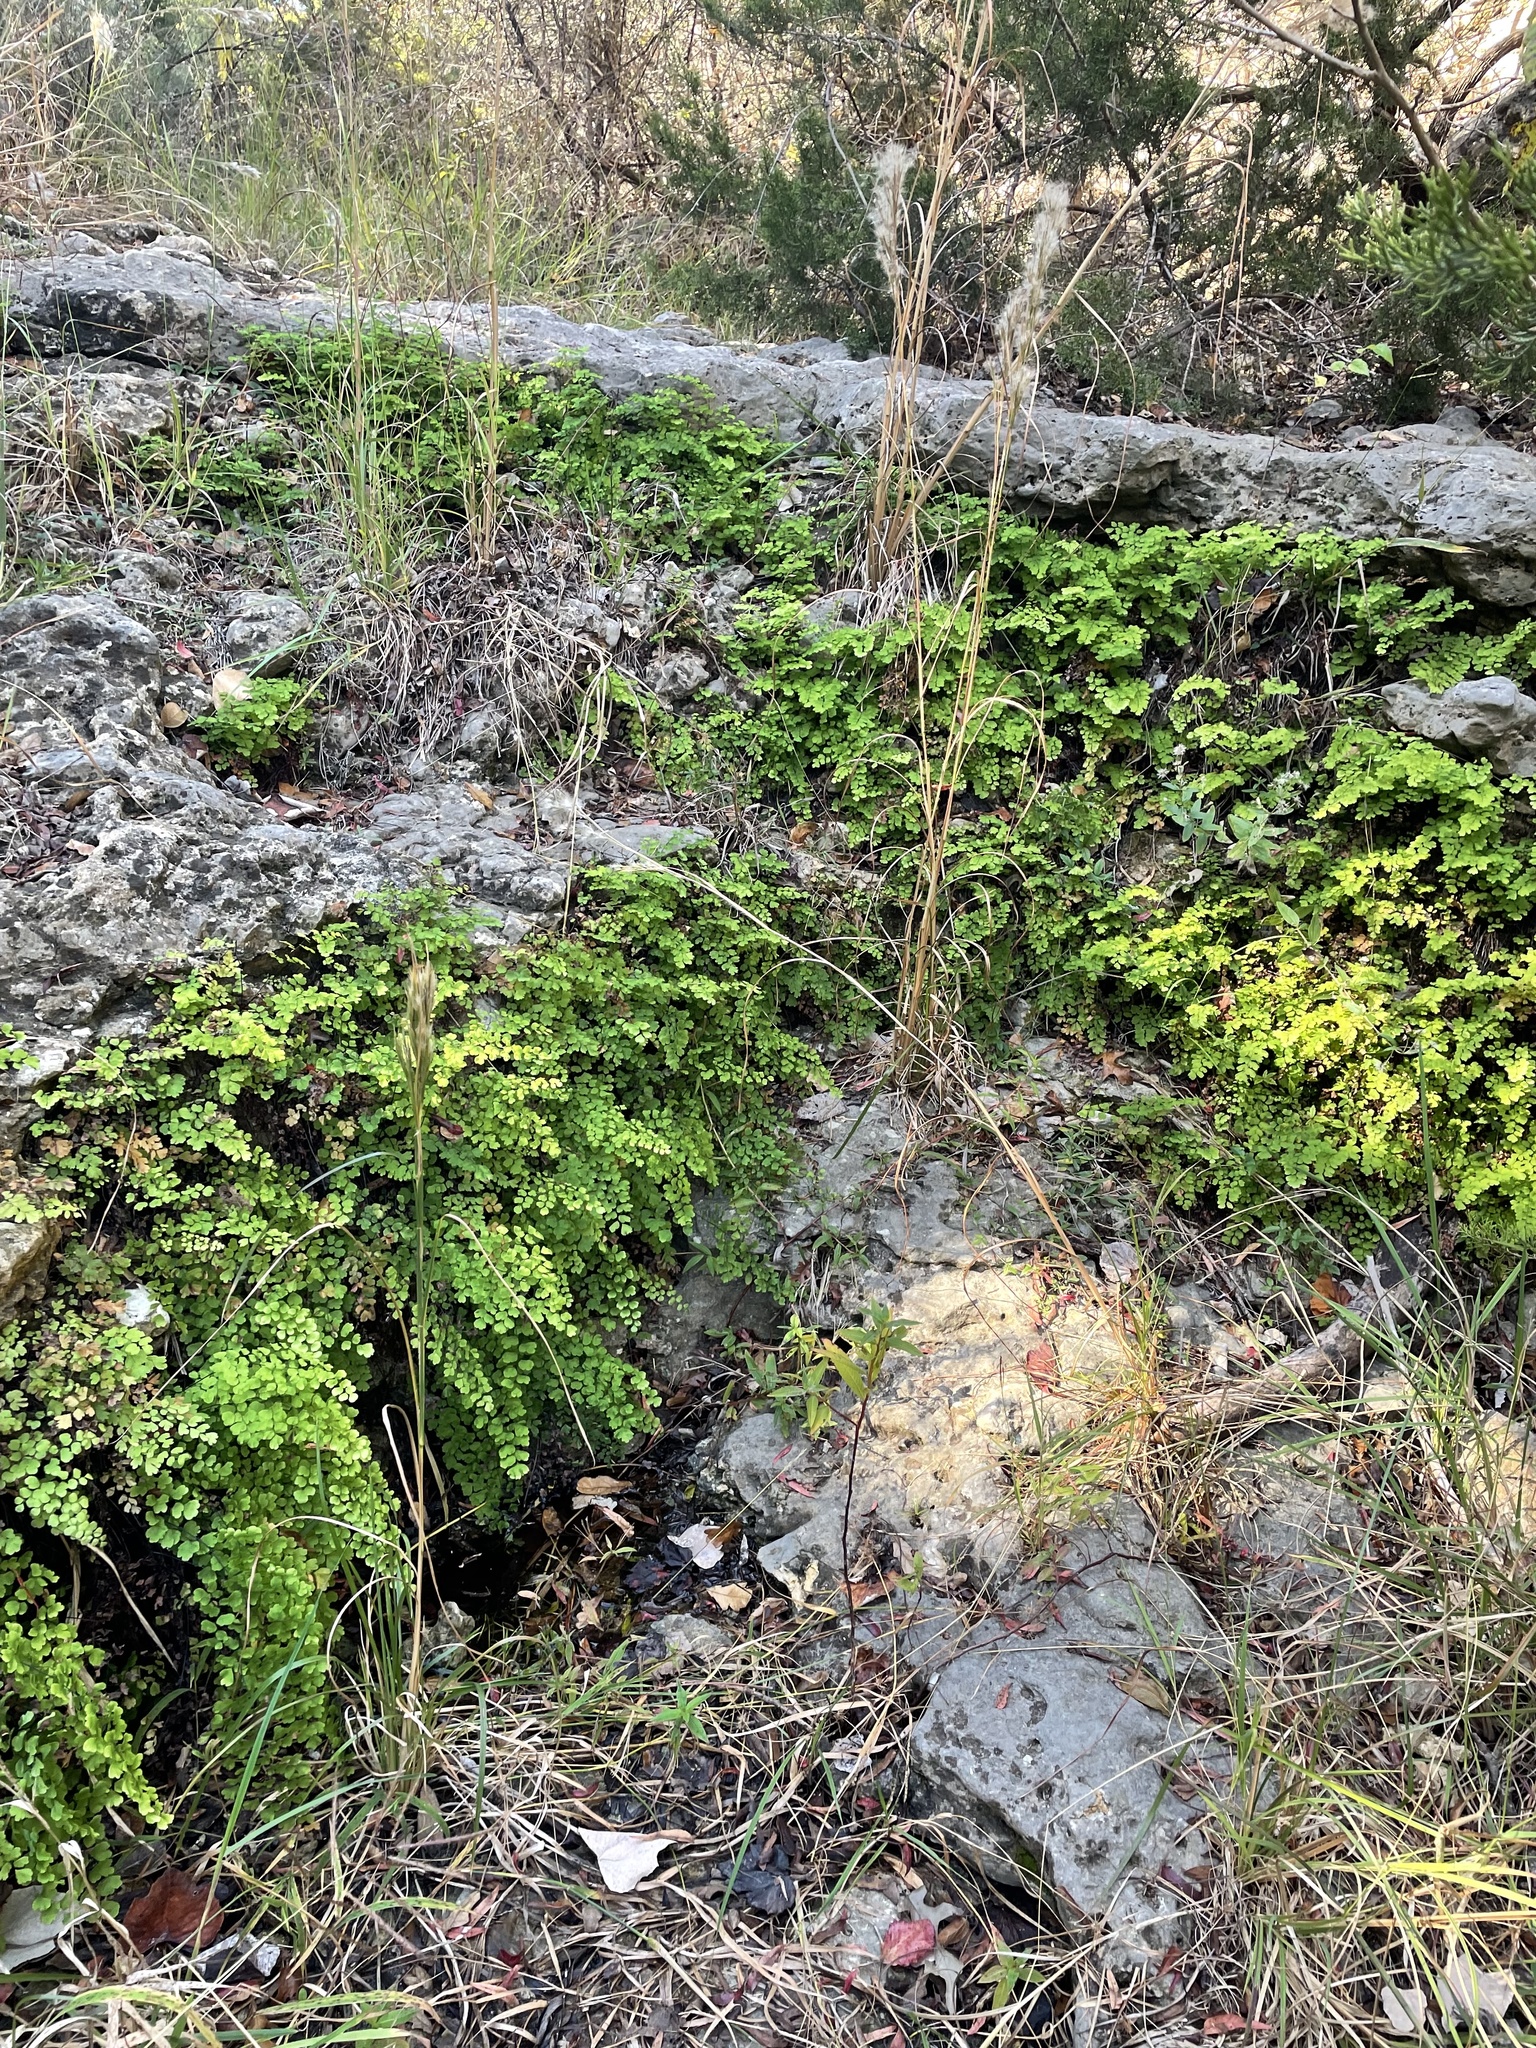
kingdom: Plantae
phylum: Tracheophyta
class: Polypodiopsida
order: Polypodiales
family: Pteridaceae
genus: Adiantum
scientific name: Adiantum capillus-veneris
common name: Maidenhair fern
